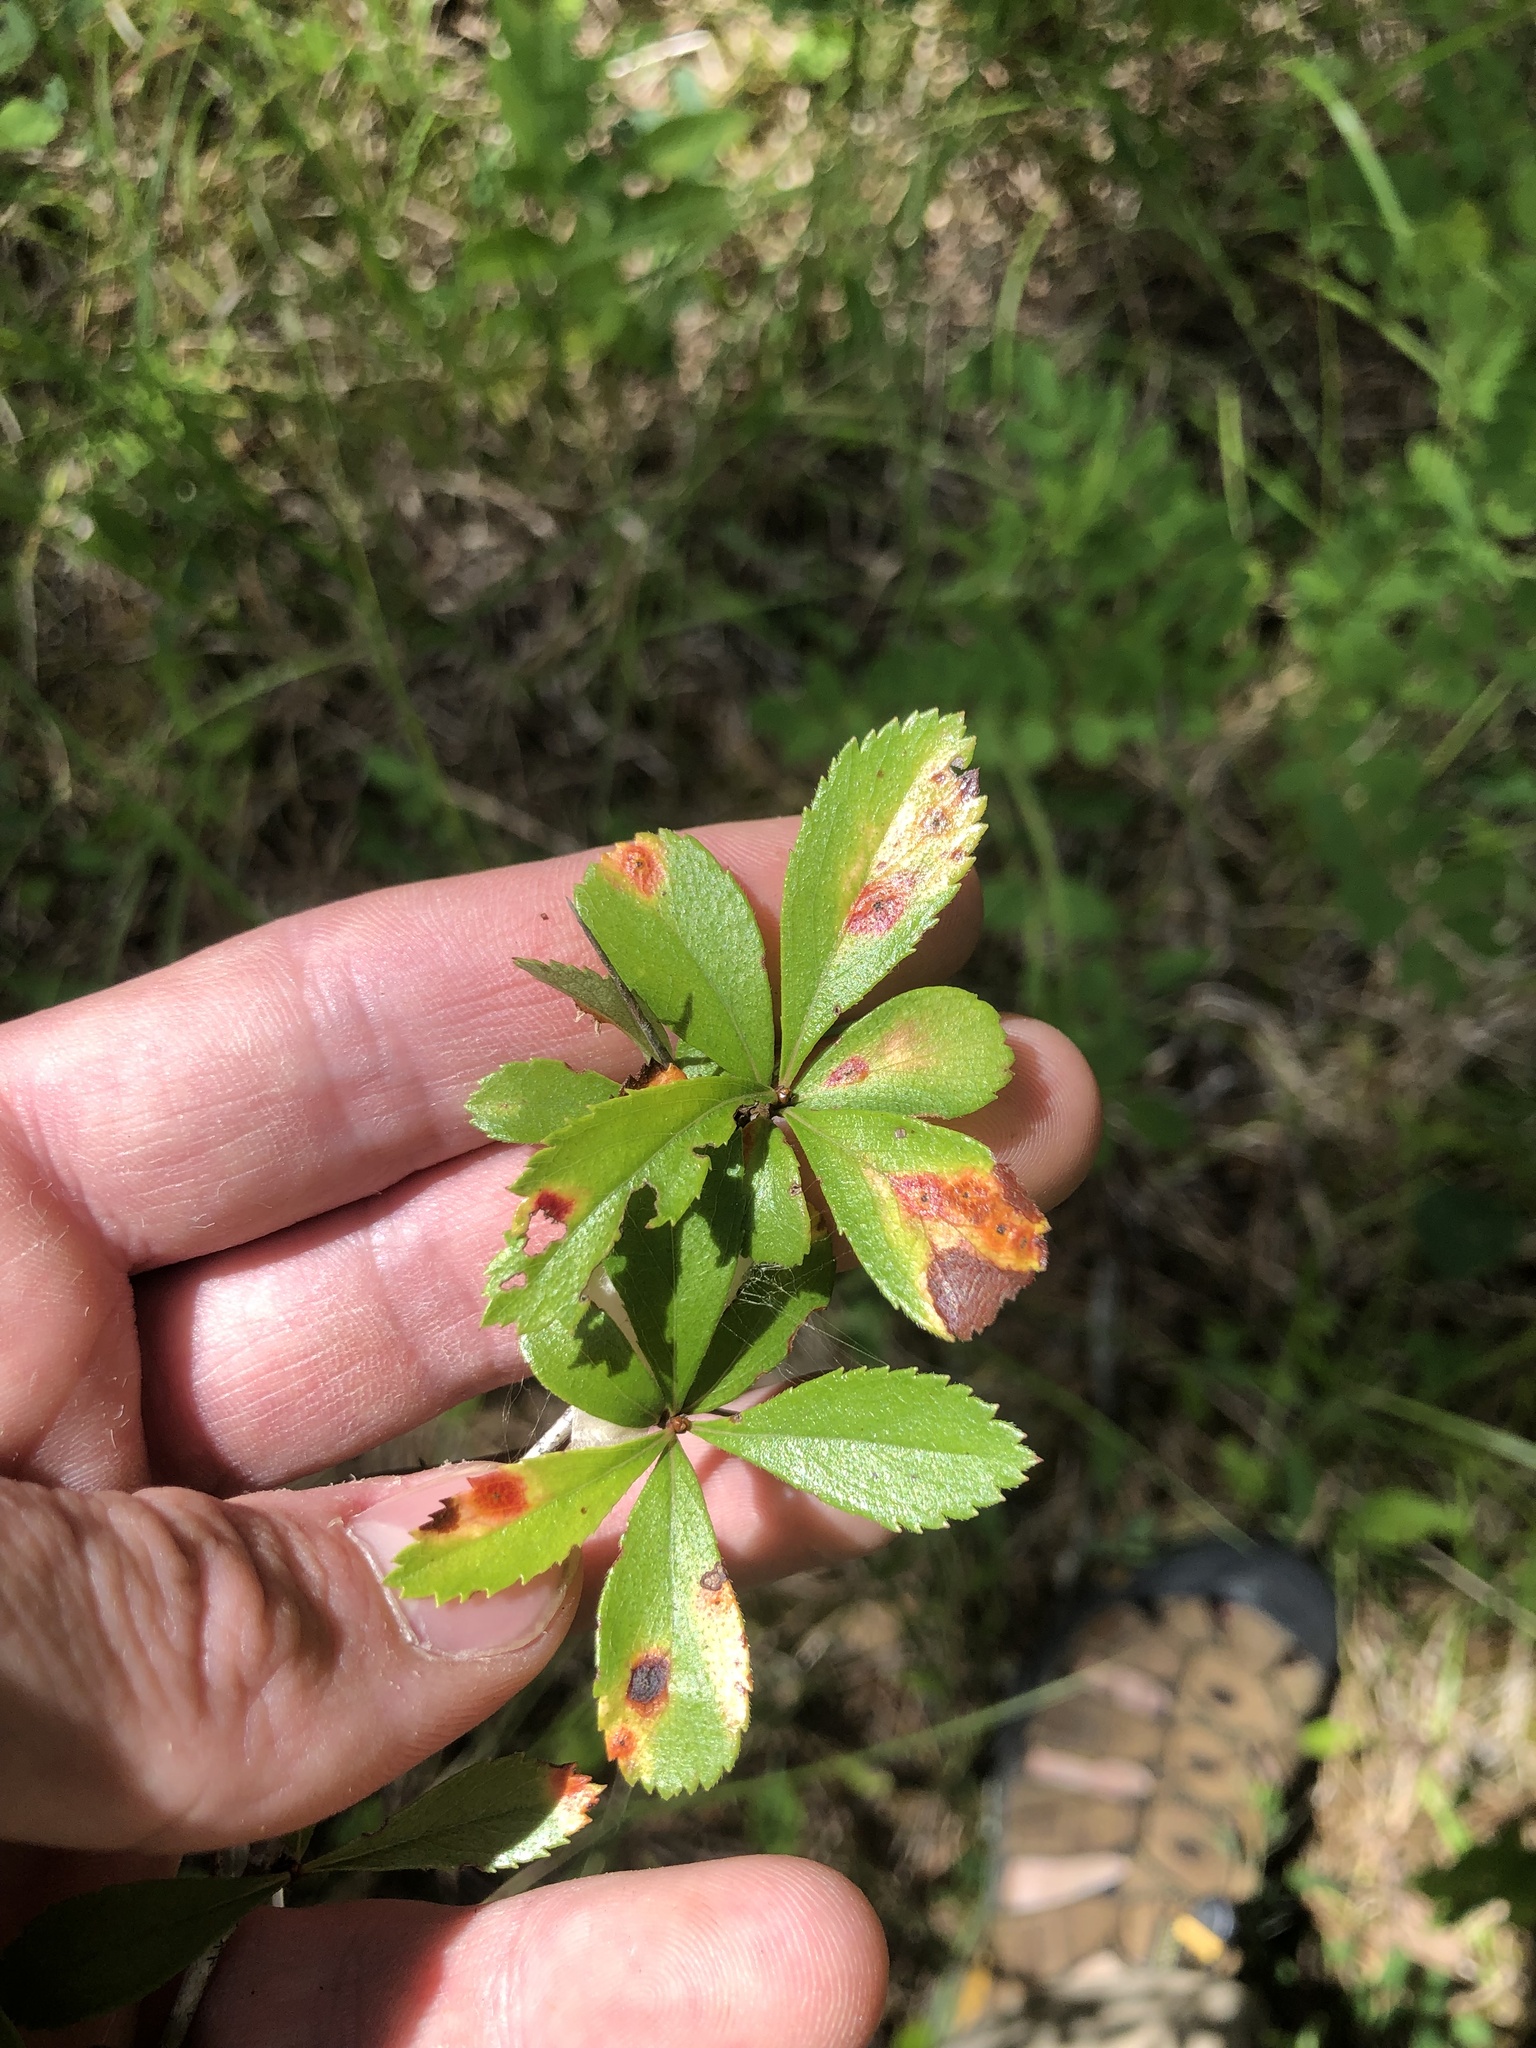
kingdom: Plantae
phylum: Tracheophyta
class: Magnoliopsida
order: Rosales
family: Rosaceae
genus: Crataegus
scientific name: Crataegus berberifolia
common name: Barberry hawthorn
